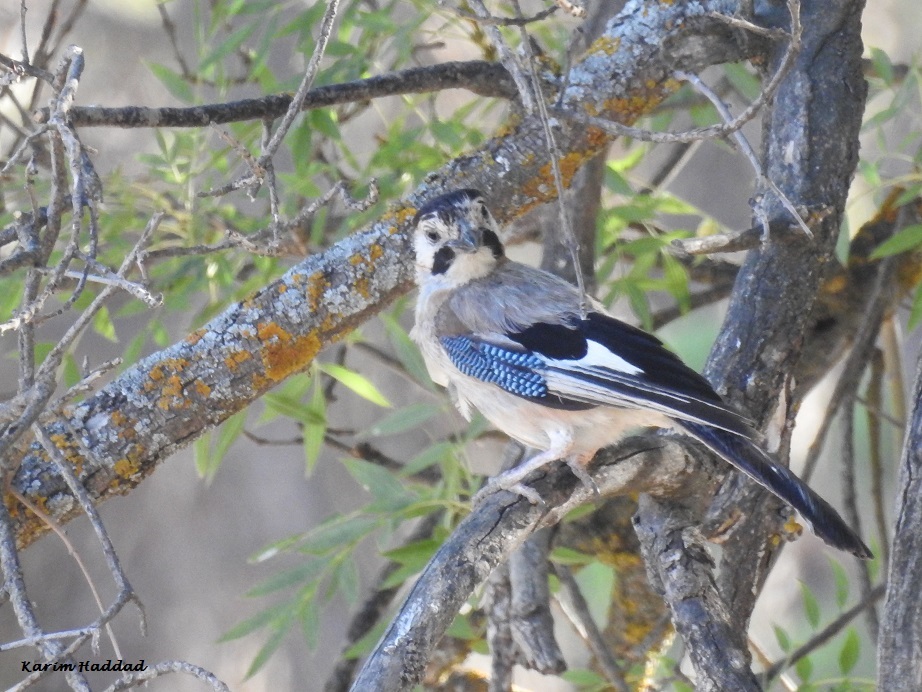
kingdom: Animalia
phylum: Chordata
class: Aves
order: Passeriformes
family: Corvidae
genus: Garrulus
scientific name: Garrulus glandarius
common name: Eurasian jay
